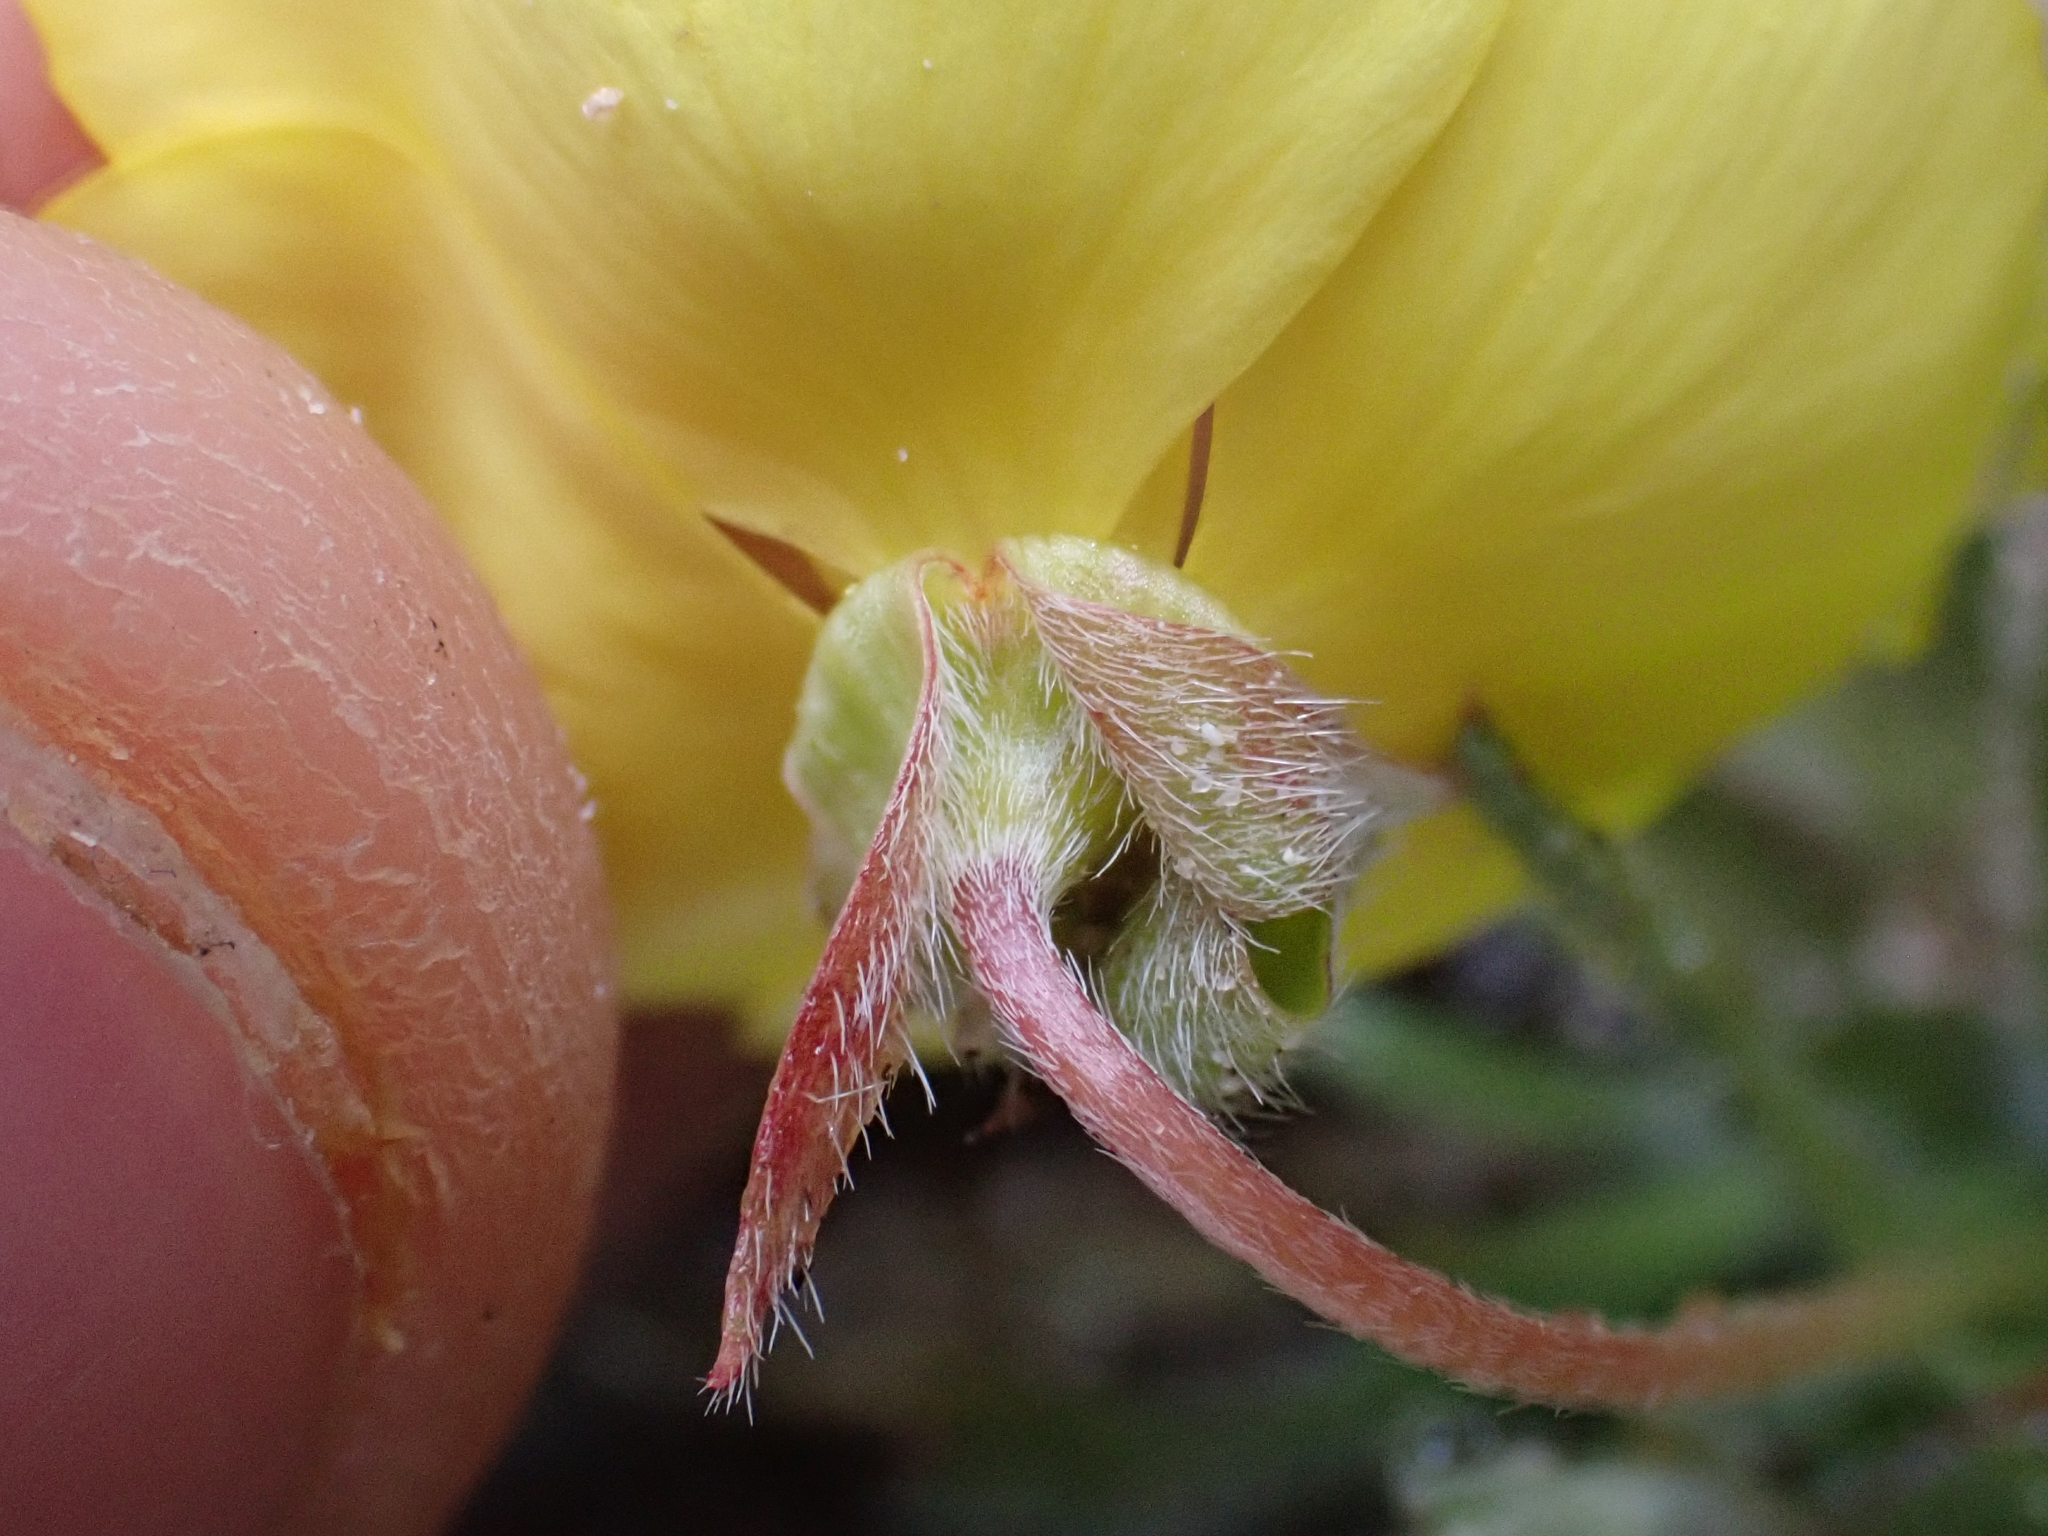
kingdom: Plantae
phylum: Tracheophyta
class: Magnoliopsida
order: Myrtales
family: Onagraceae
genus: Tetrapteron
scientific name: Tetrapteron graciliflorum
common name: Hill suncup
